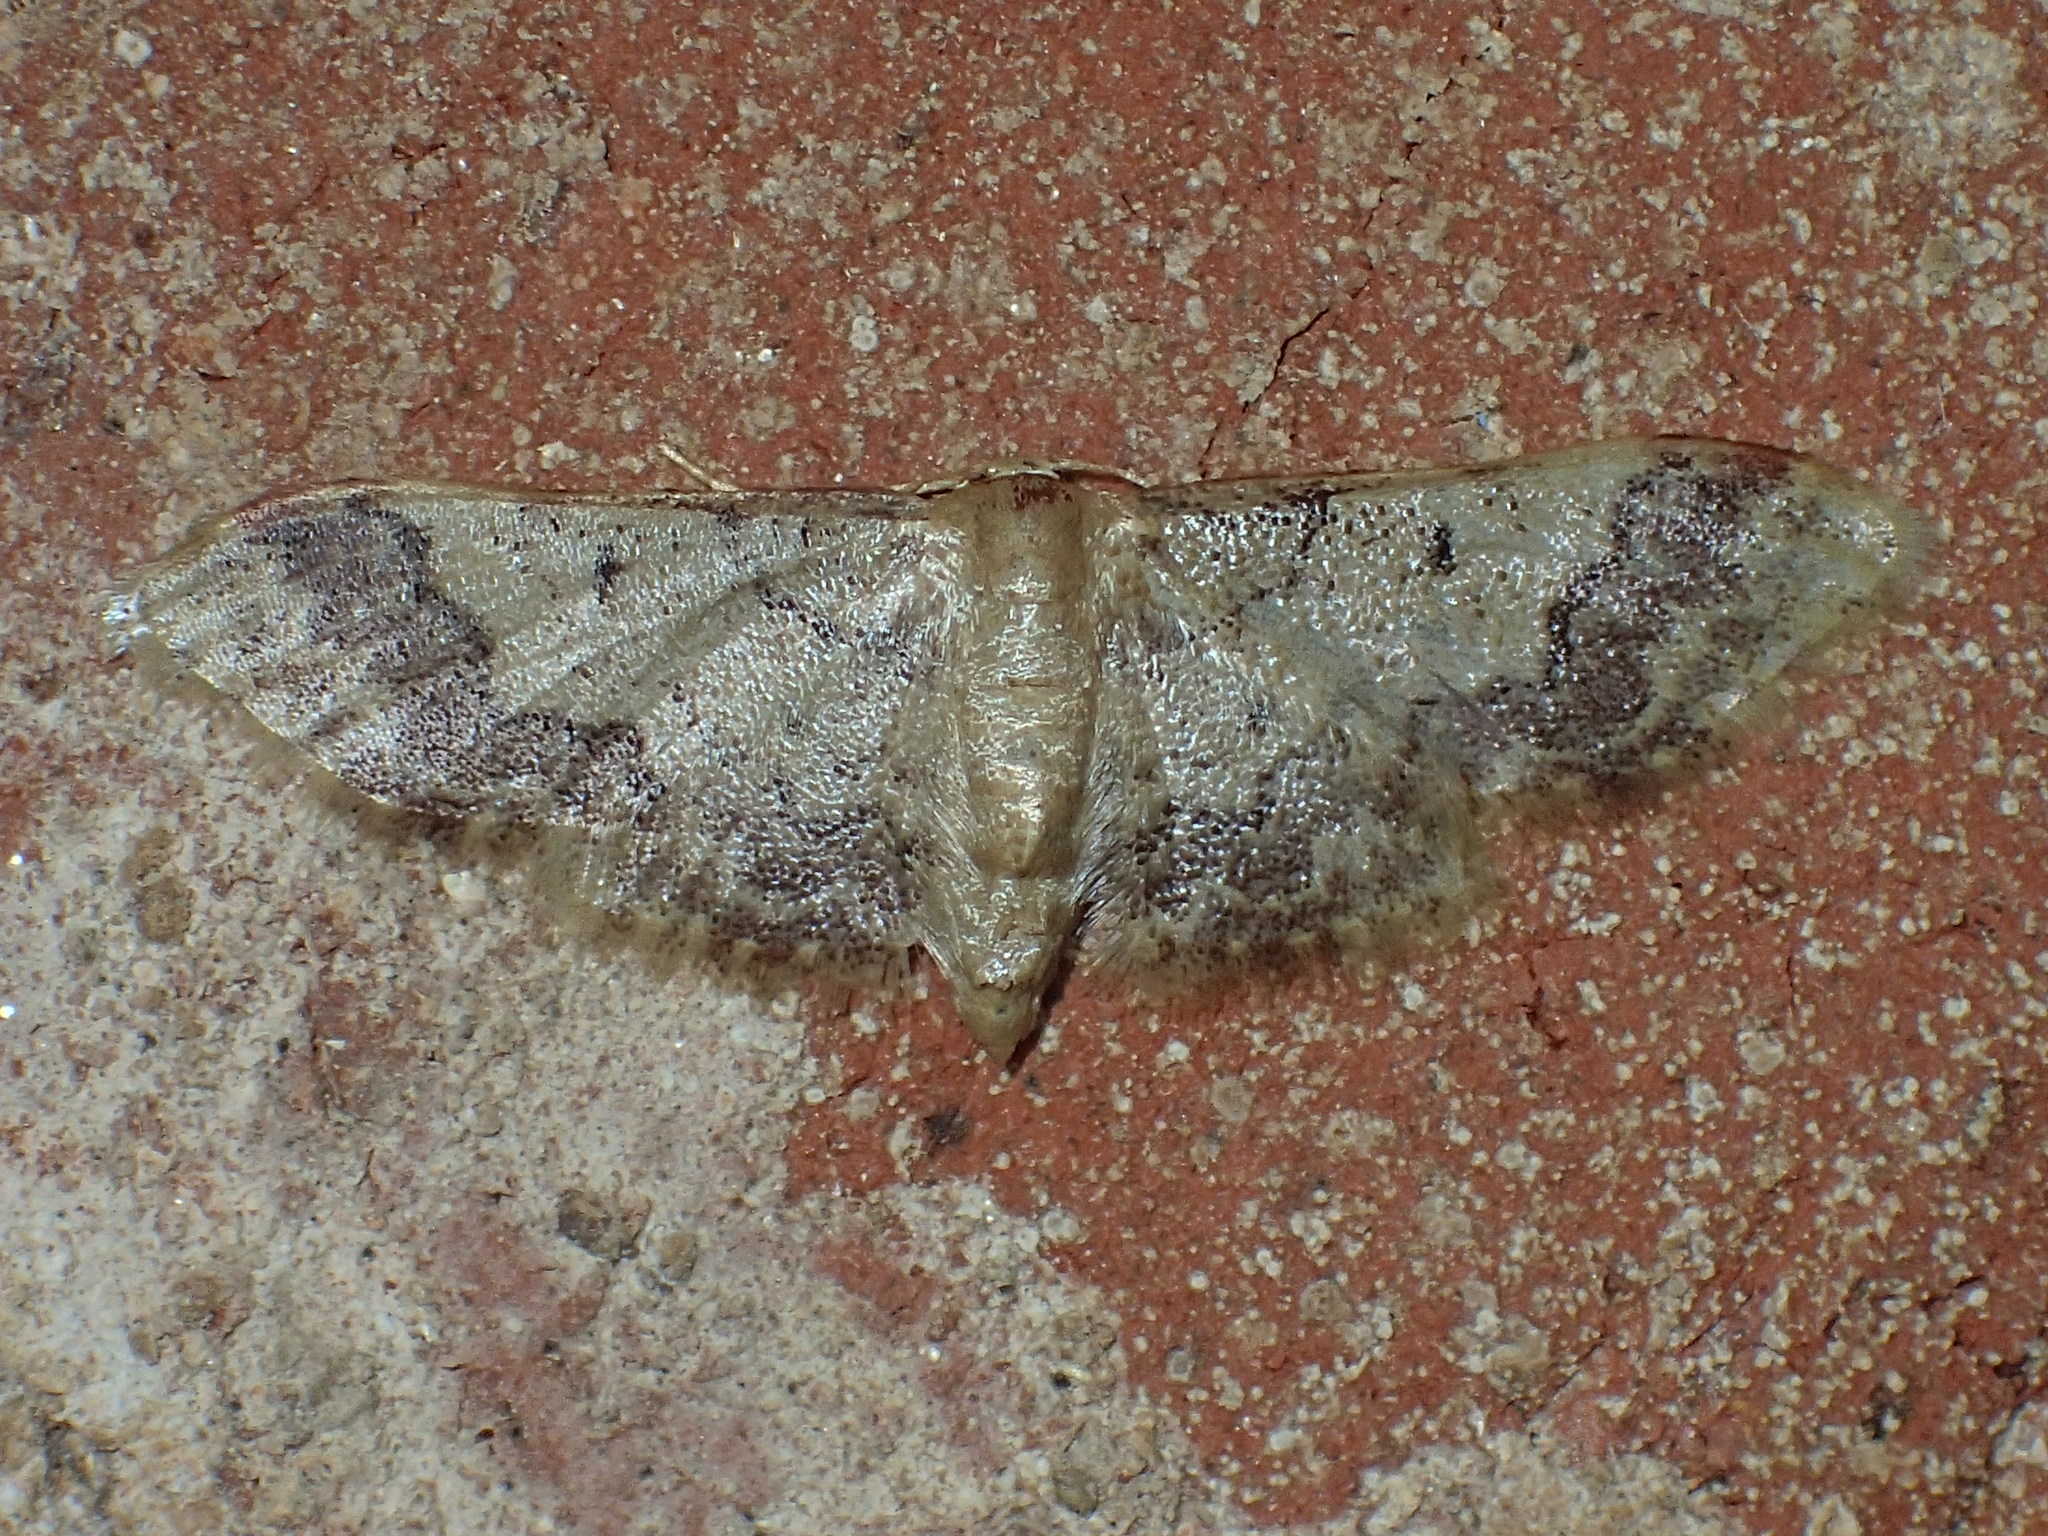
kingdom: Animalia
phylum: Arthropoda
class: Insecta
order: Lepidoptera
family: Geometridae
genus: Idaea
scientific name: Idaea furciferata
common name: Notch-winged wave
